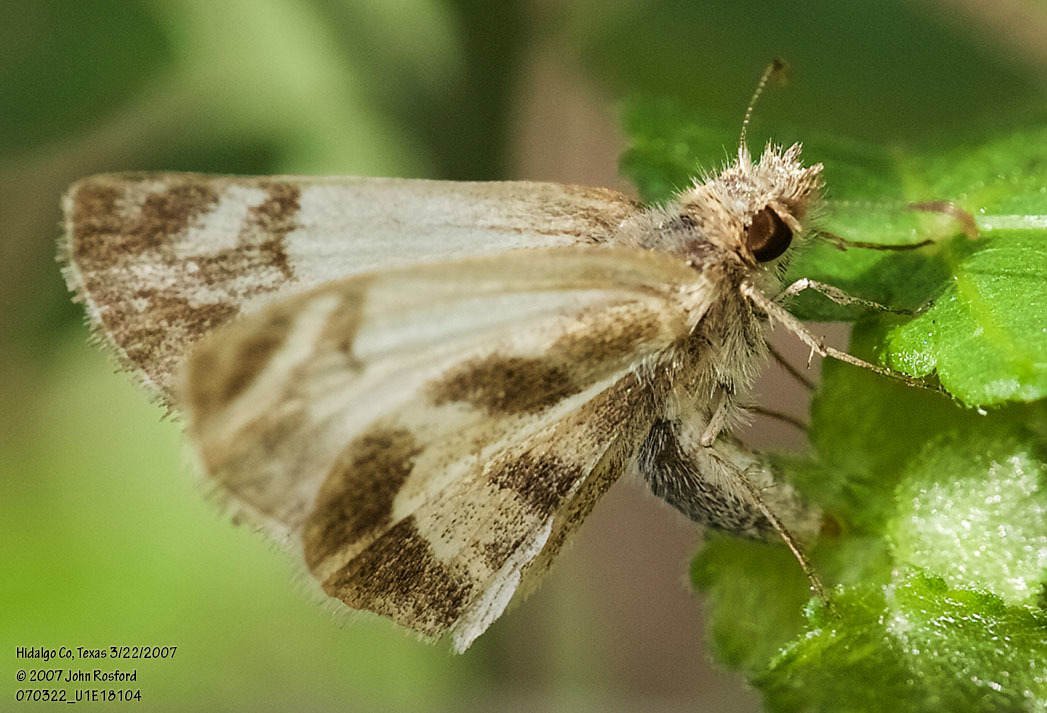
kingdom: Animalia
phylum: Arthropoda
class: Insecta
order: Lepidoptera
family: Hesperiidae
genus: Heliopetes
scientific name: Heliopetes macaira
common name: Turk's-cap white-skipper
